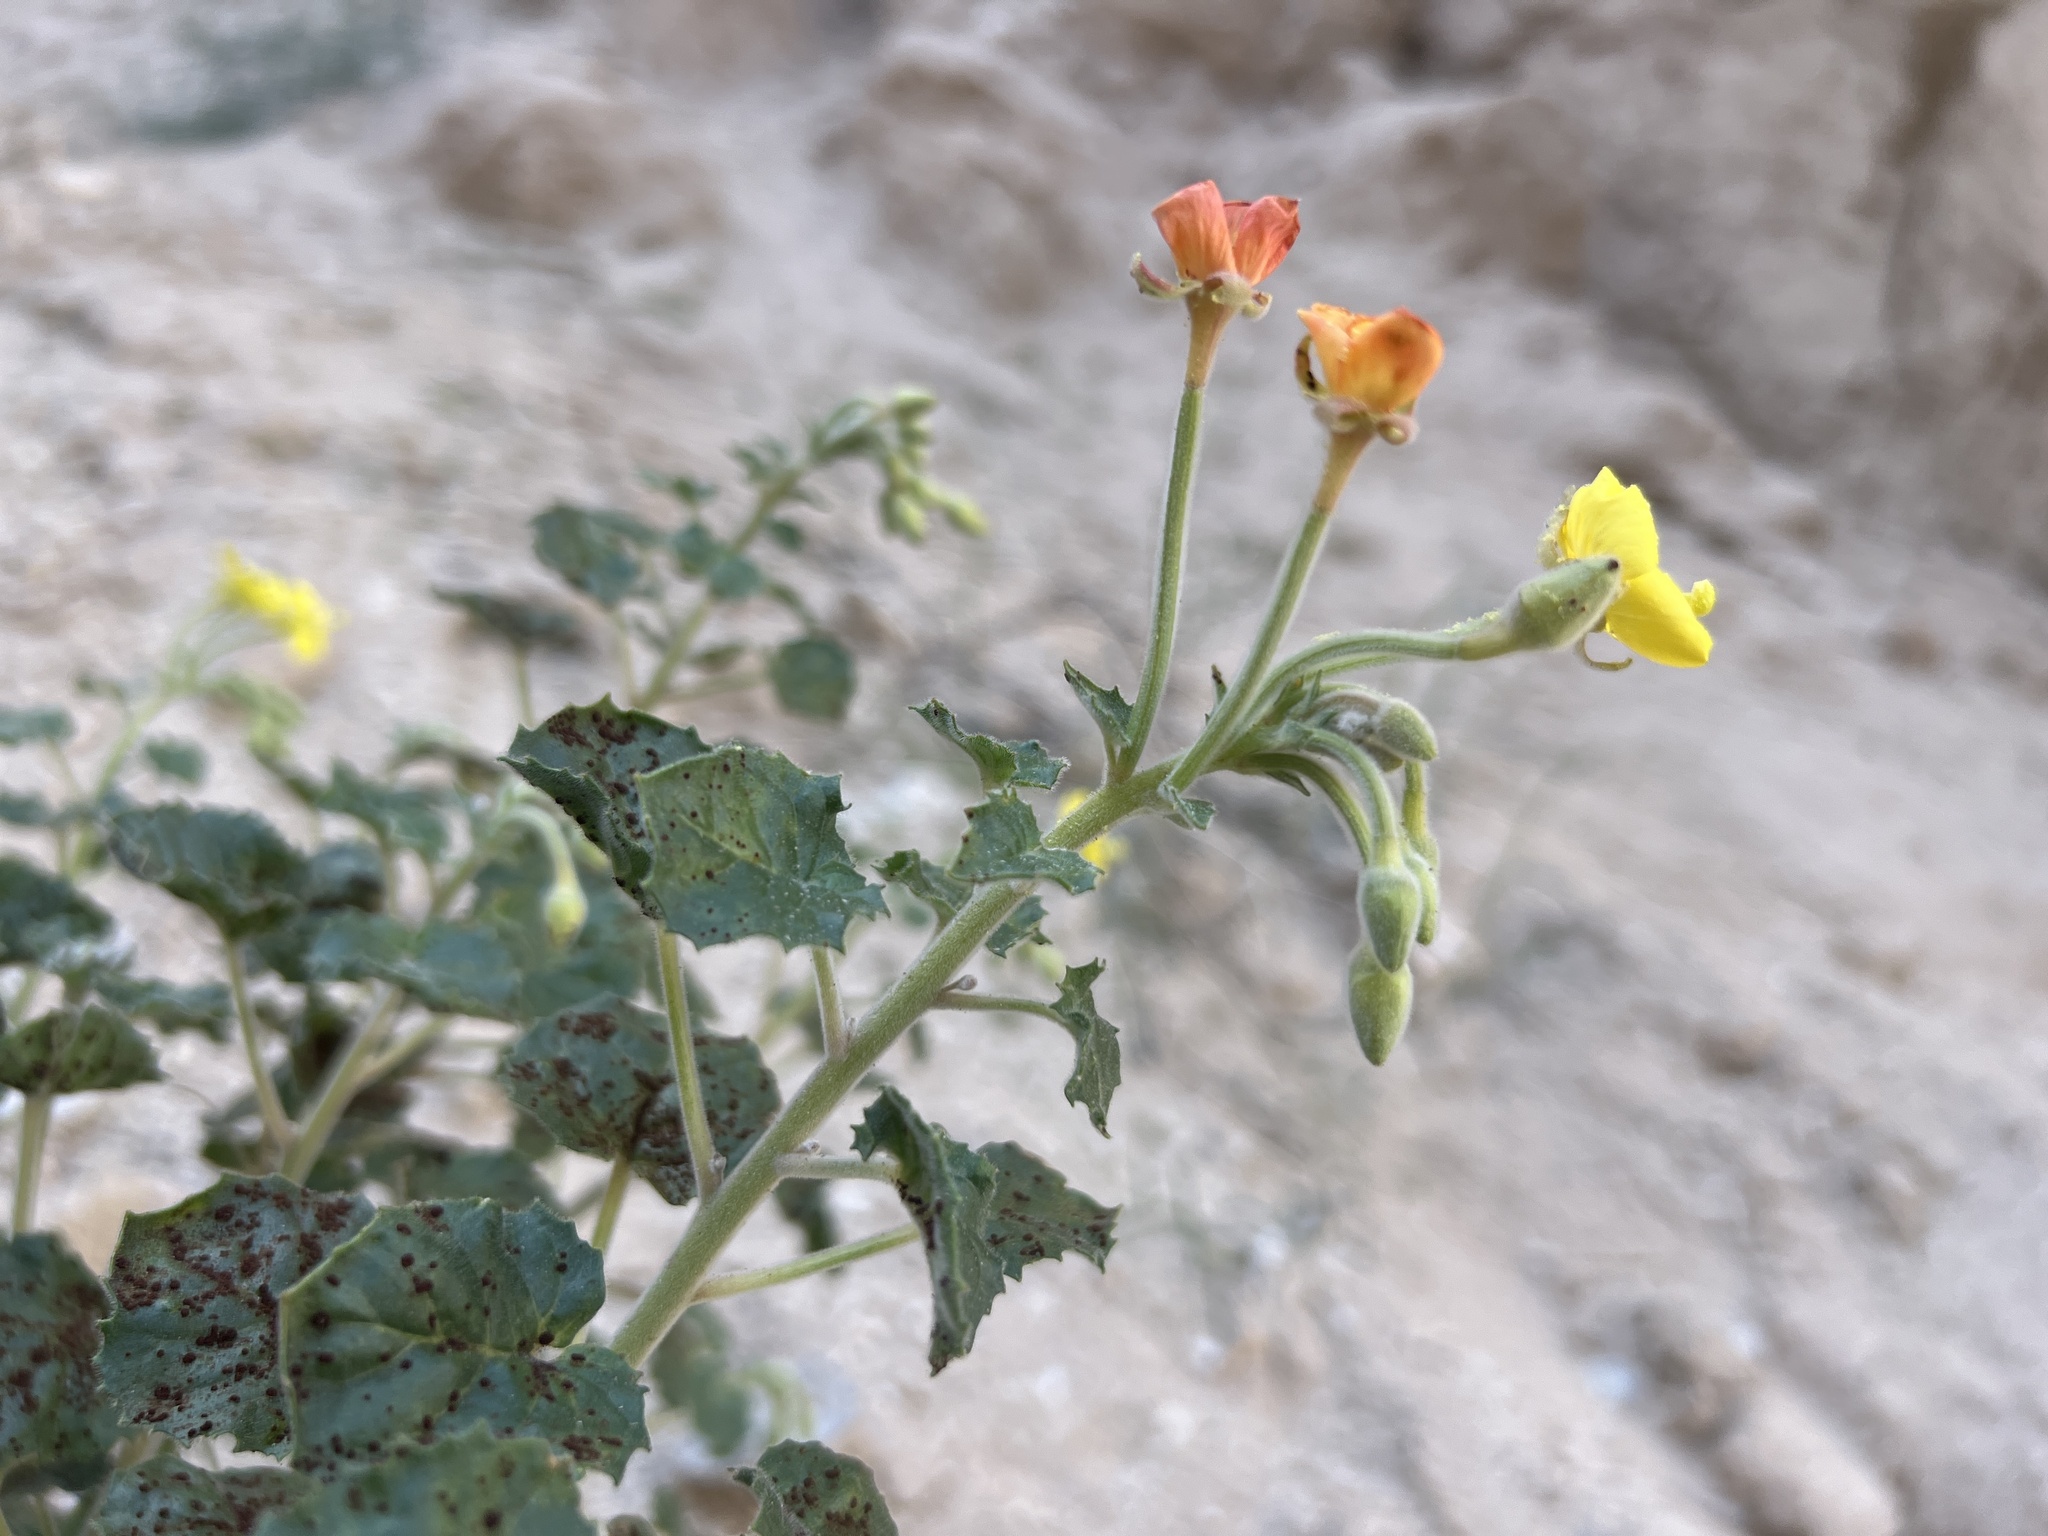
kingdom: Plantae
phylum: Tracheophyta
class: Magnoliopsida
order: Myrtales
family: Onagraceae
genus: Chylismia
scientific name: Chylismia cardiophylla
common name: Heartleaf suncup
